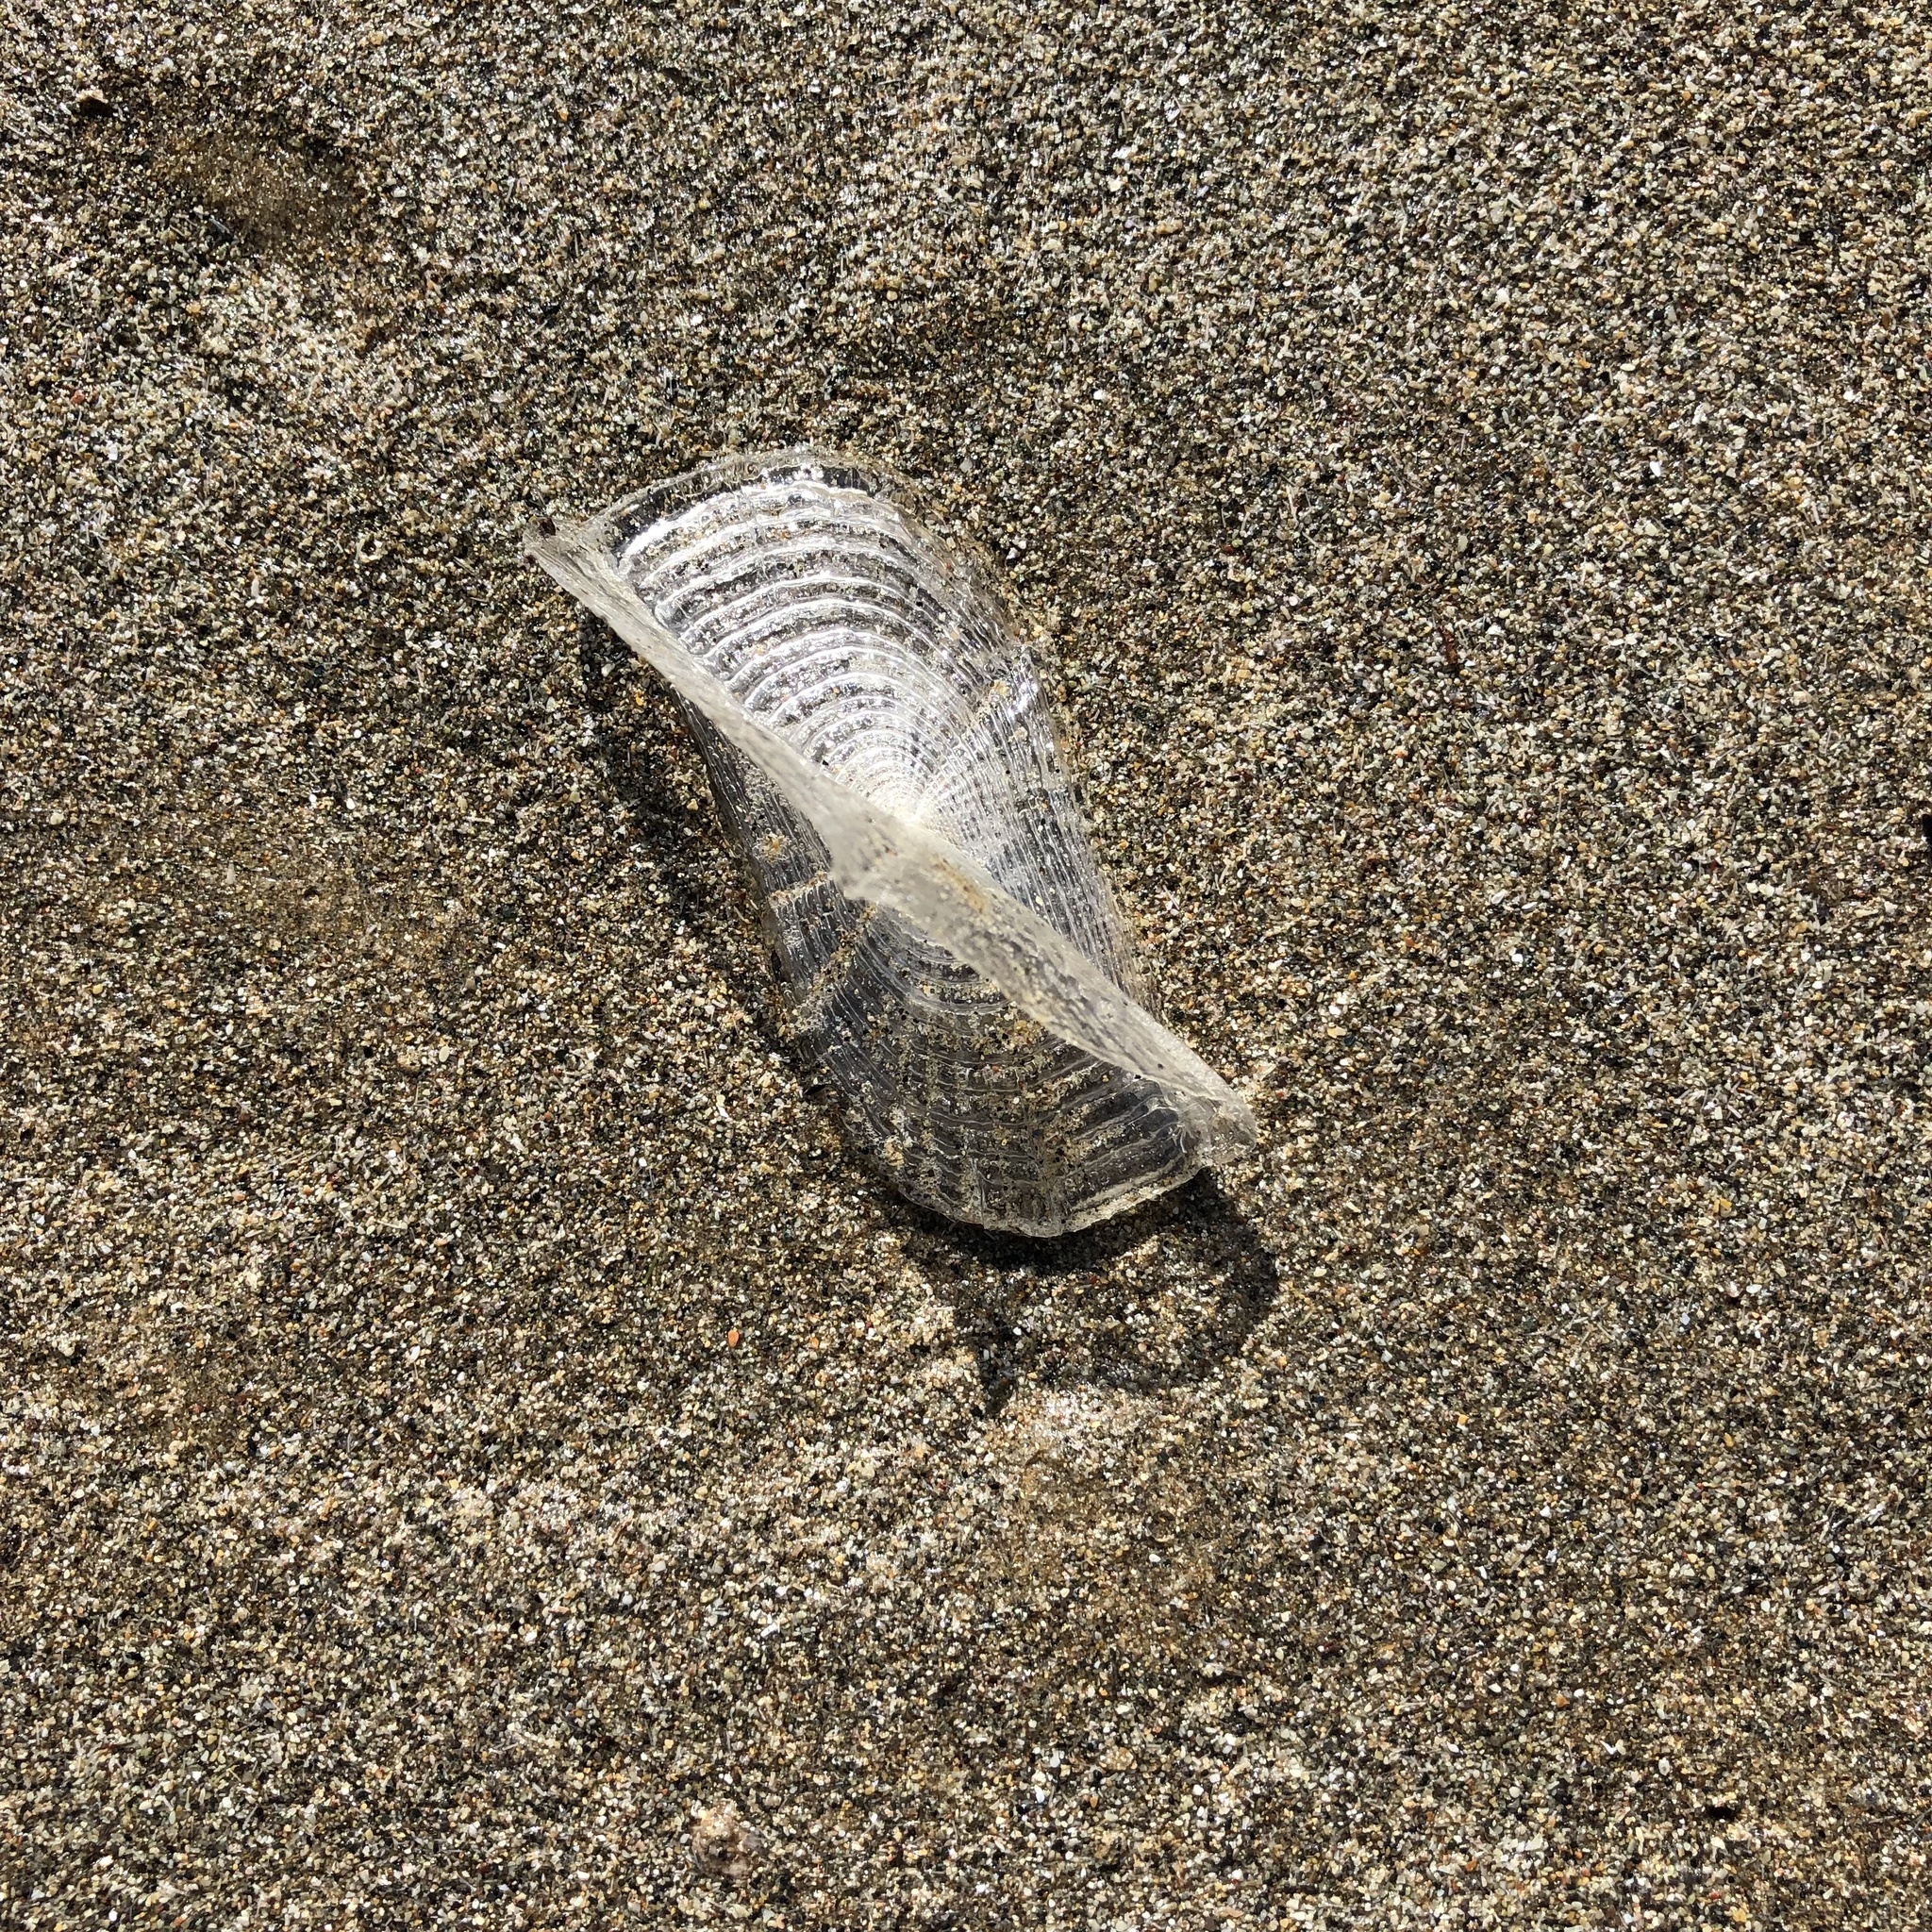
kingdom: Animalia
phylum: Cnidaria
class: Hydrozoa
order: Anthoathecata
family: Porpitidae
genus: Velella
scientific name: Velella velella
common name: By-the-wind-sailor
